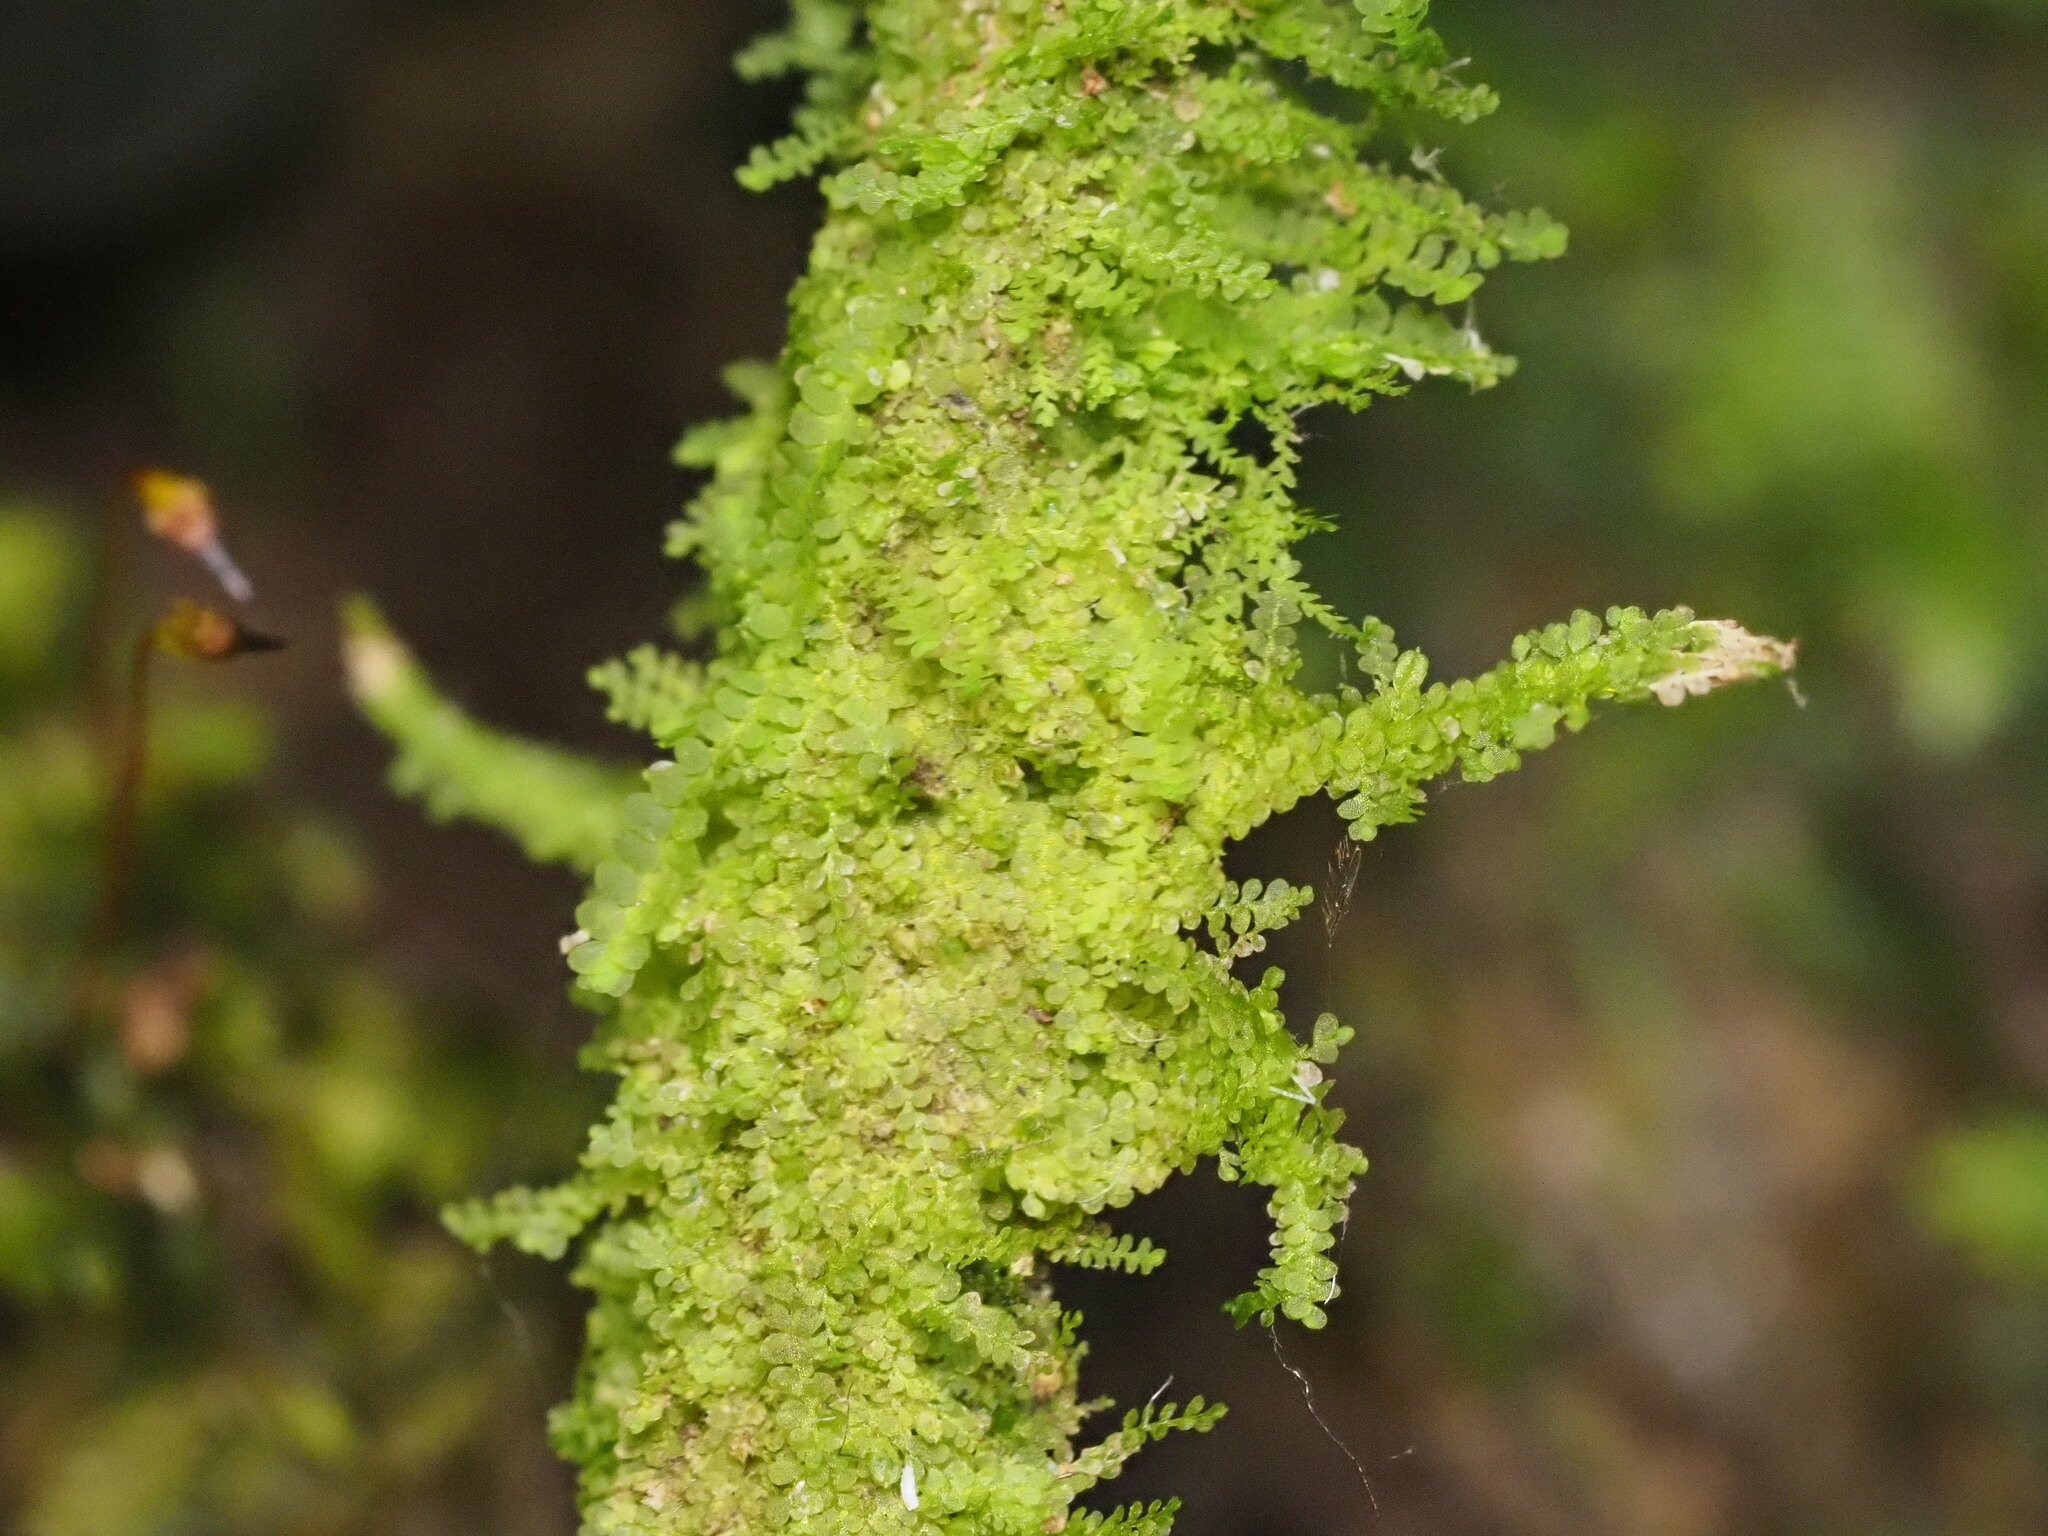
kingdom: Plantae
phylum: Marchantiophyta
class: Jungermanniopsida
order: Porellales
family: Lejeuneaceae
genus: Lejeunea
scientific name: Lejeunea flava
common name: Yellow pouncewort
